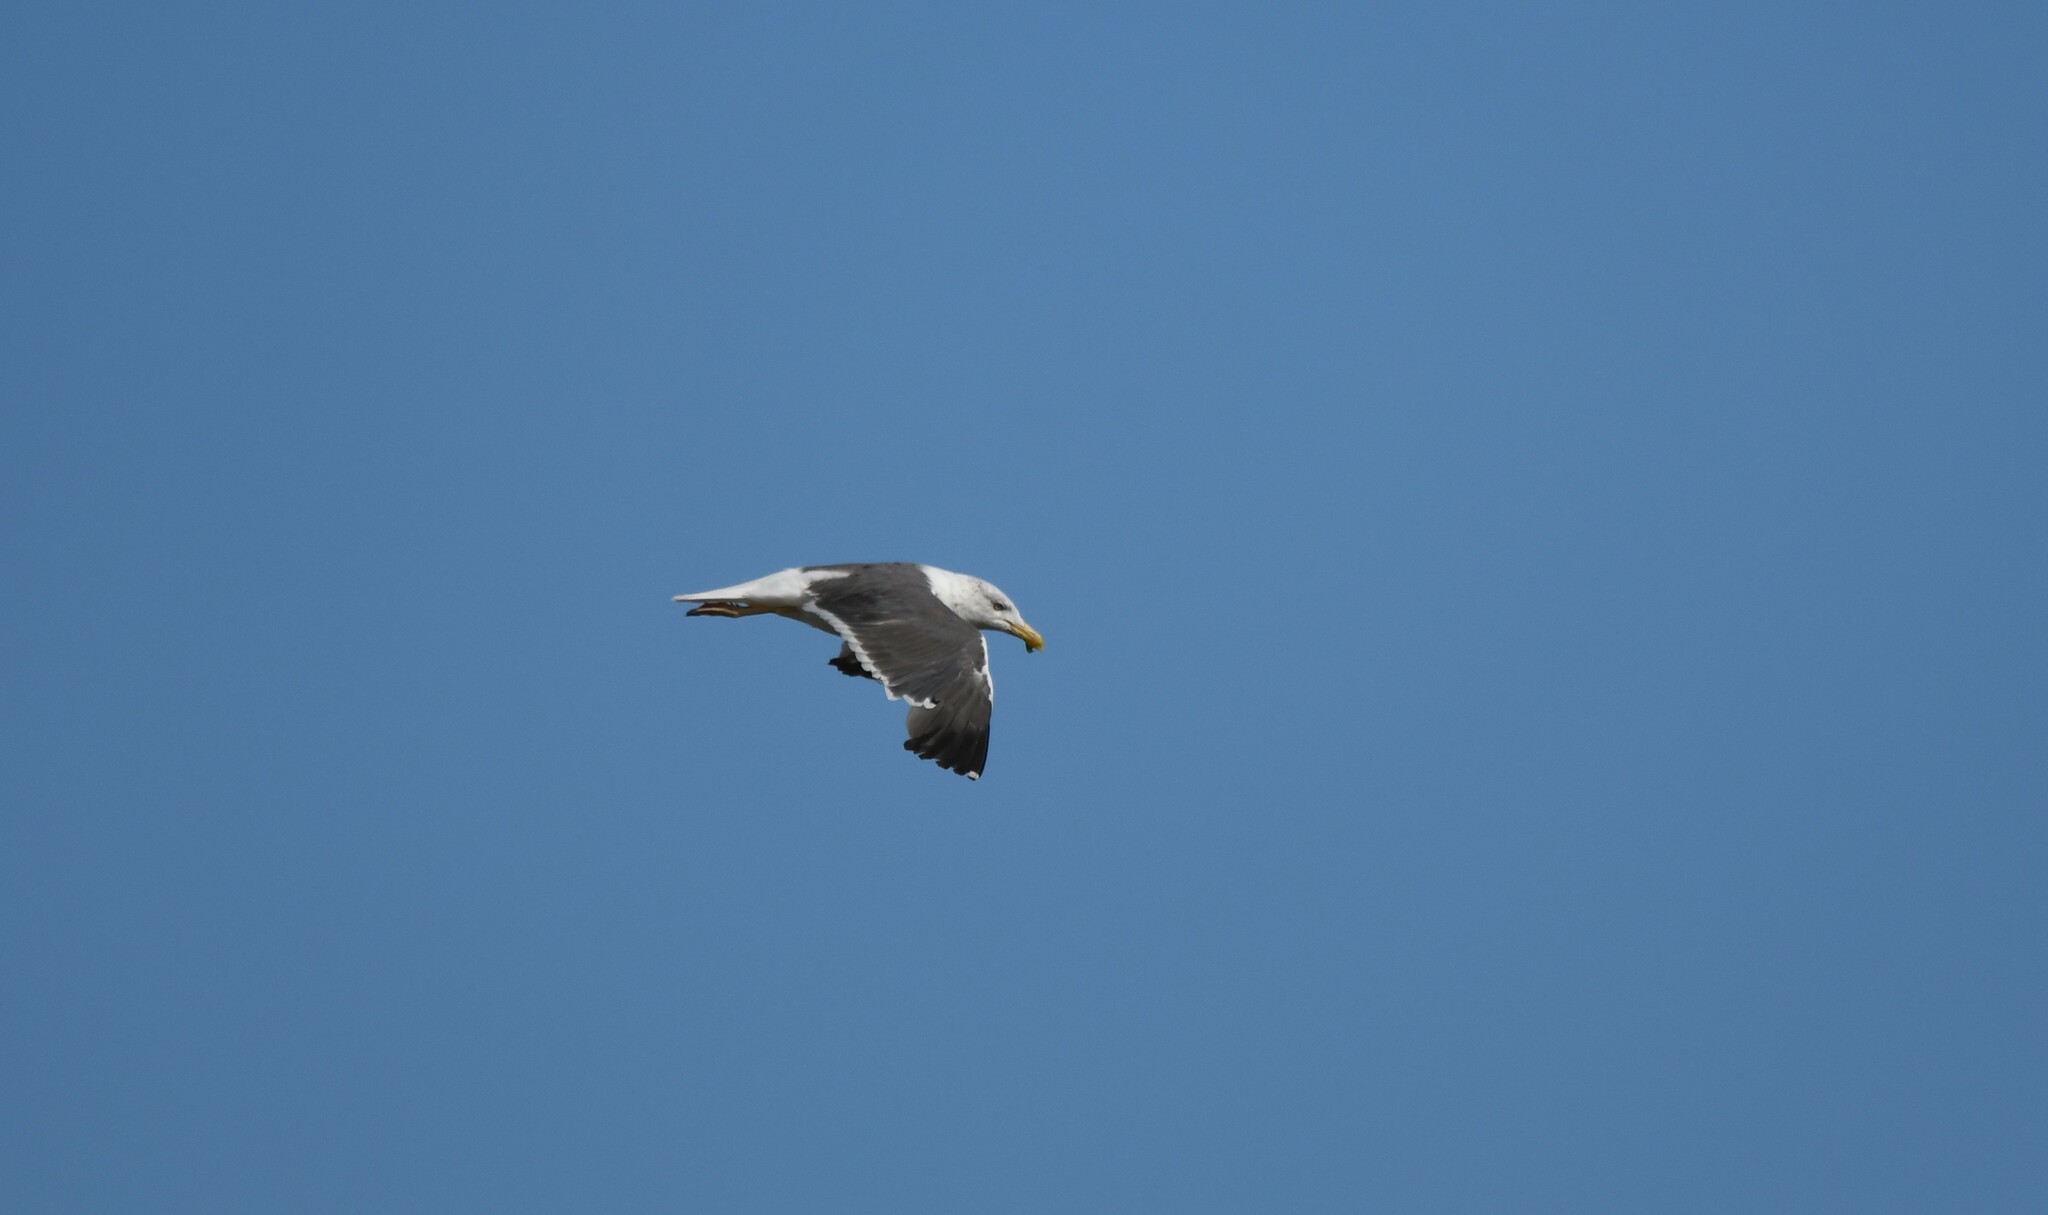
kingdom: Animalia
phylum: Chordata
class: Aves
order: Charadriiformes
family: Laridae
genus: Larus
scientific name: Larus fuscus
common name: Lesser black-backed gull
